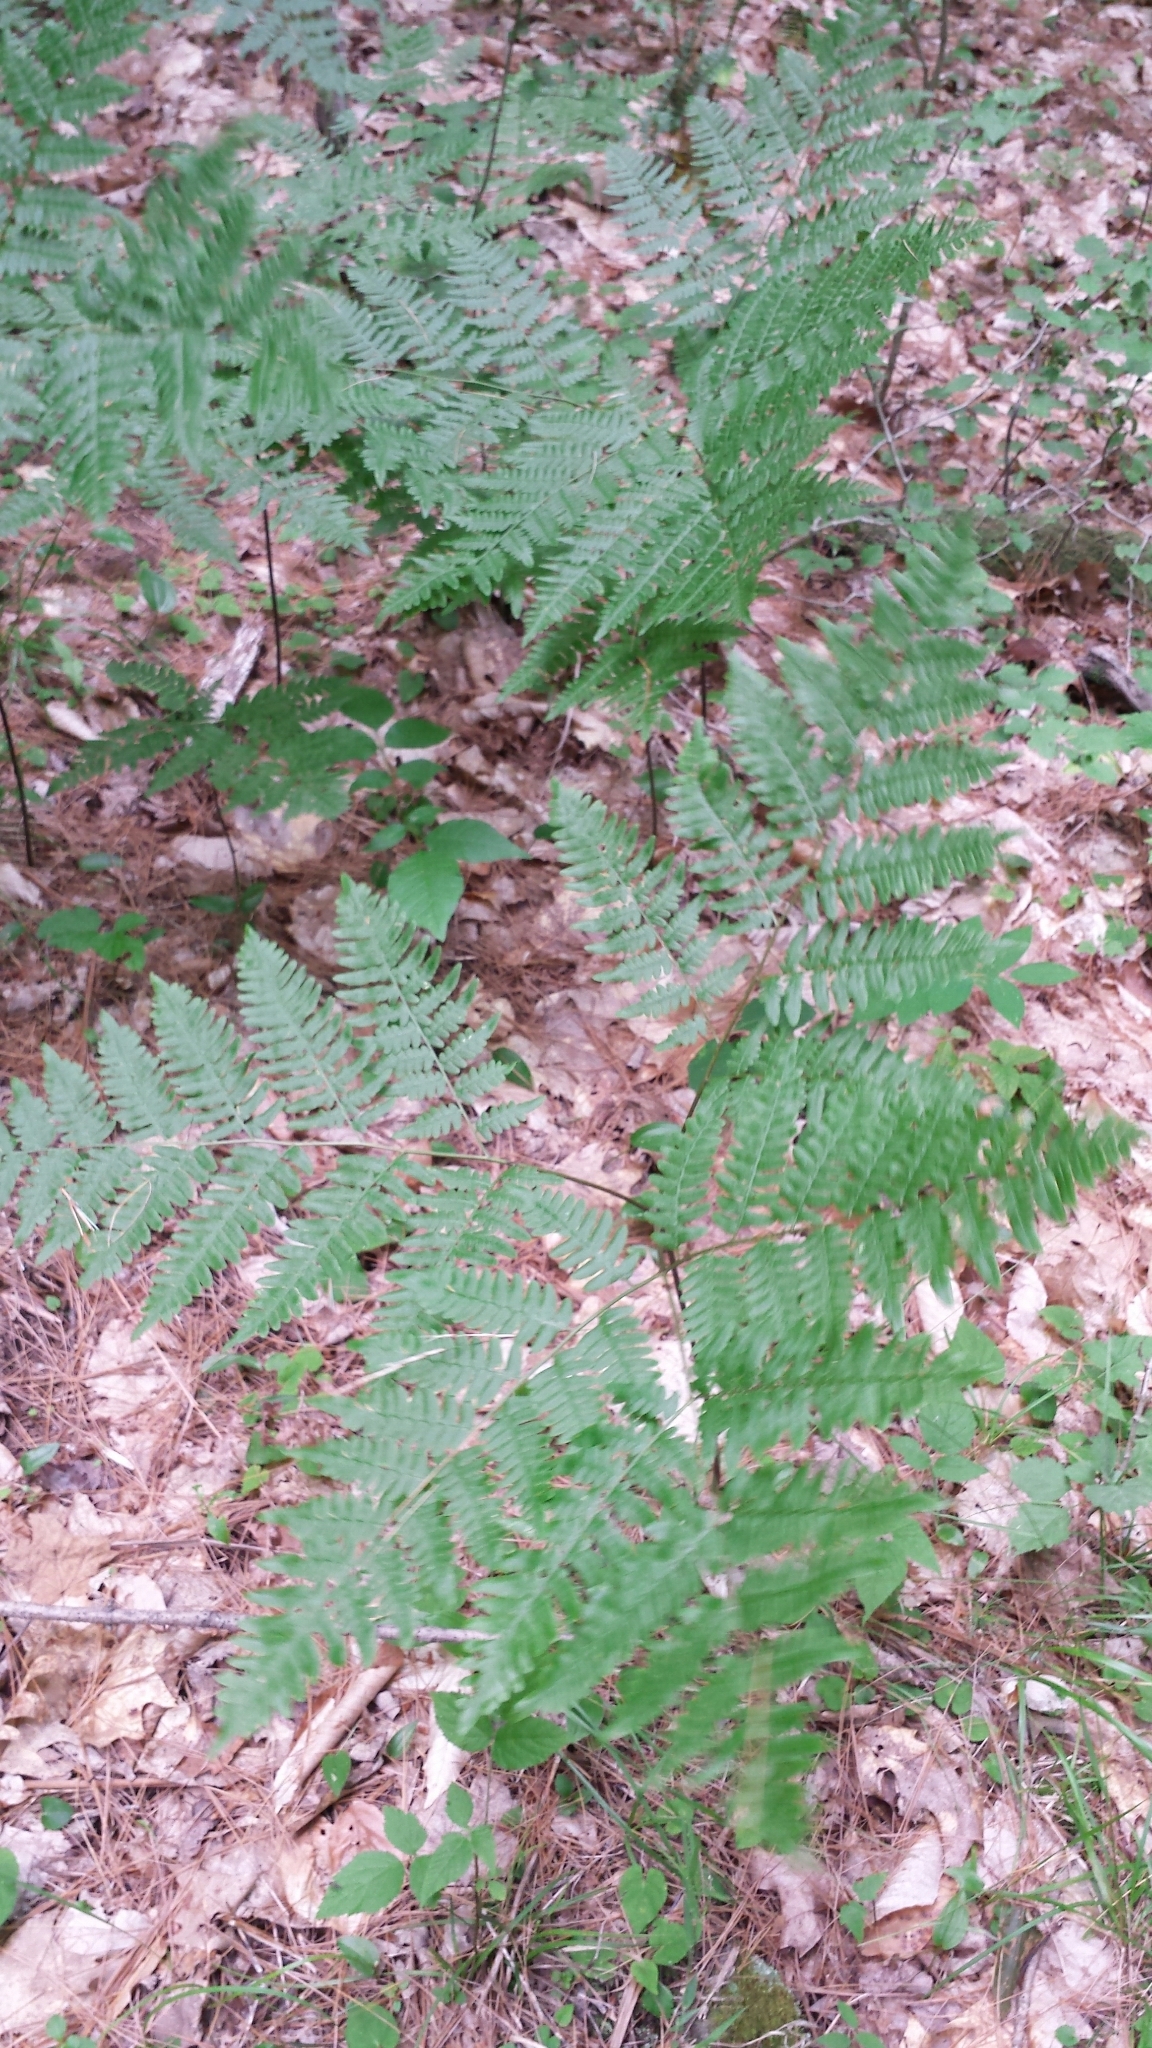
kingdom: Plantae
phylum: Tracheophyta
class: Polypodiopsida
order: Polypodiales
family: Dennstaedtiaceae
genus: Pteridium
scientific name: Pteridium aquilinum
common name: Bracken
